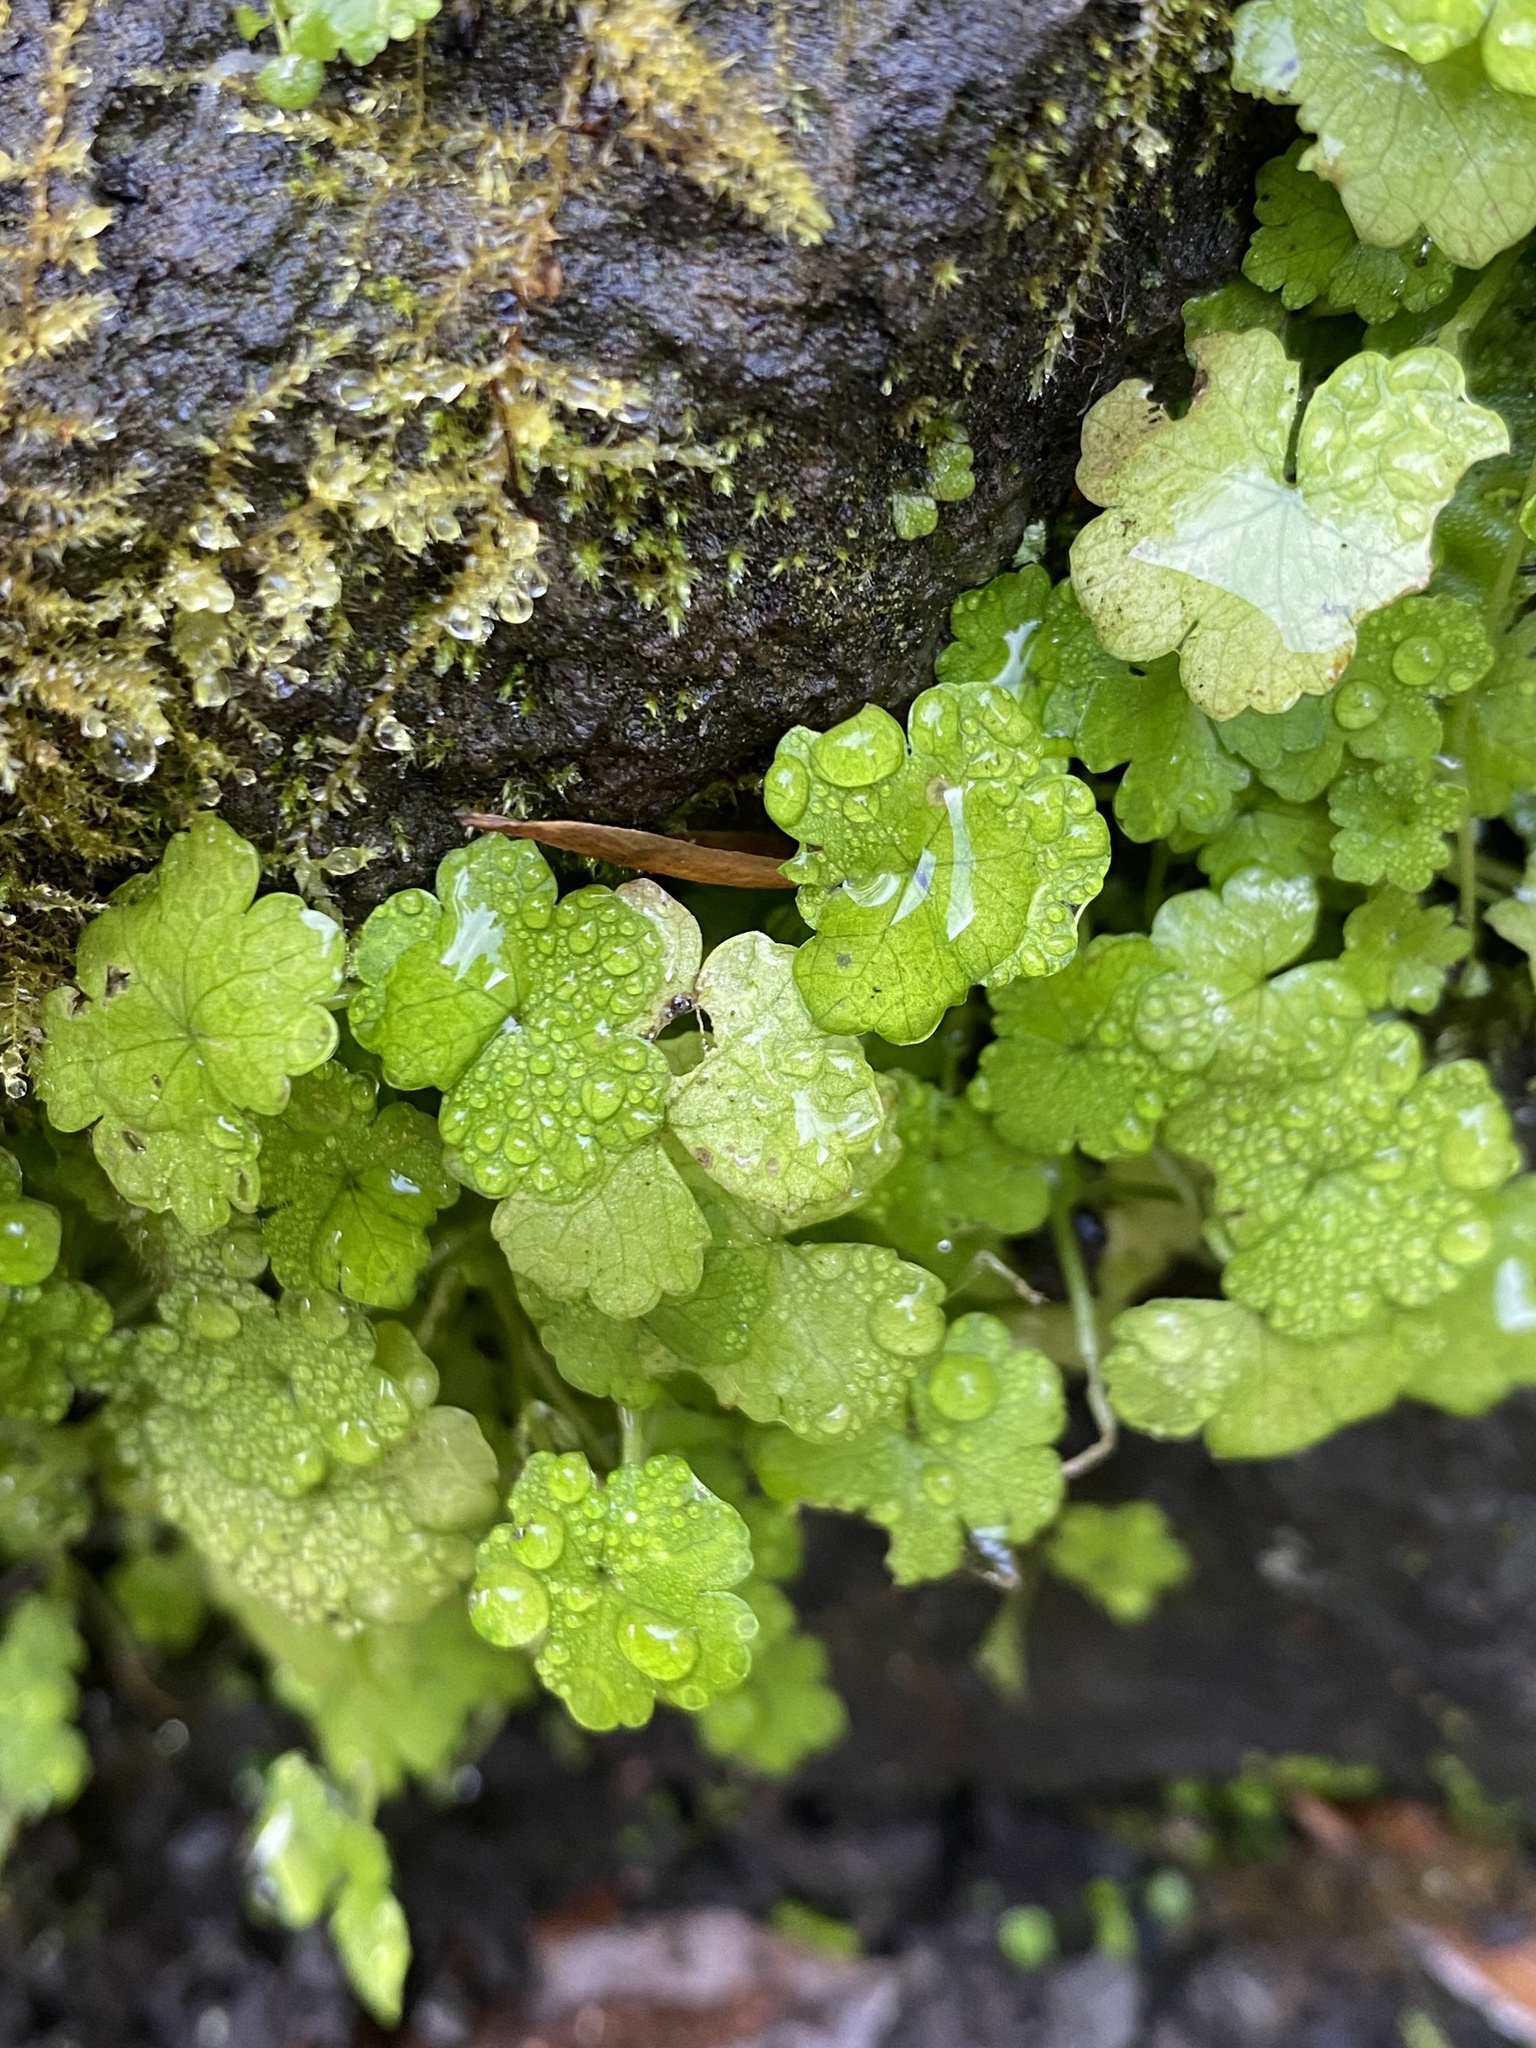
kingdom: Plantae
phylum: Tracheophyta
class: Magnoliopsida
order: Apiales
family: Araliaceae
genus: Hydrocotyle
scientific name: Hydrocotyle heteromeria
